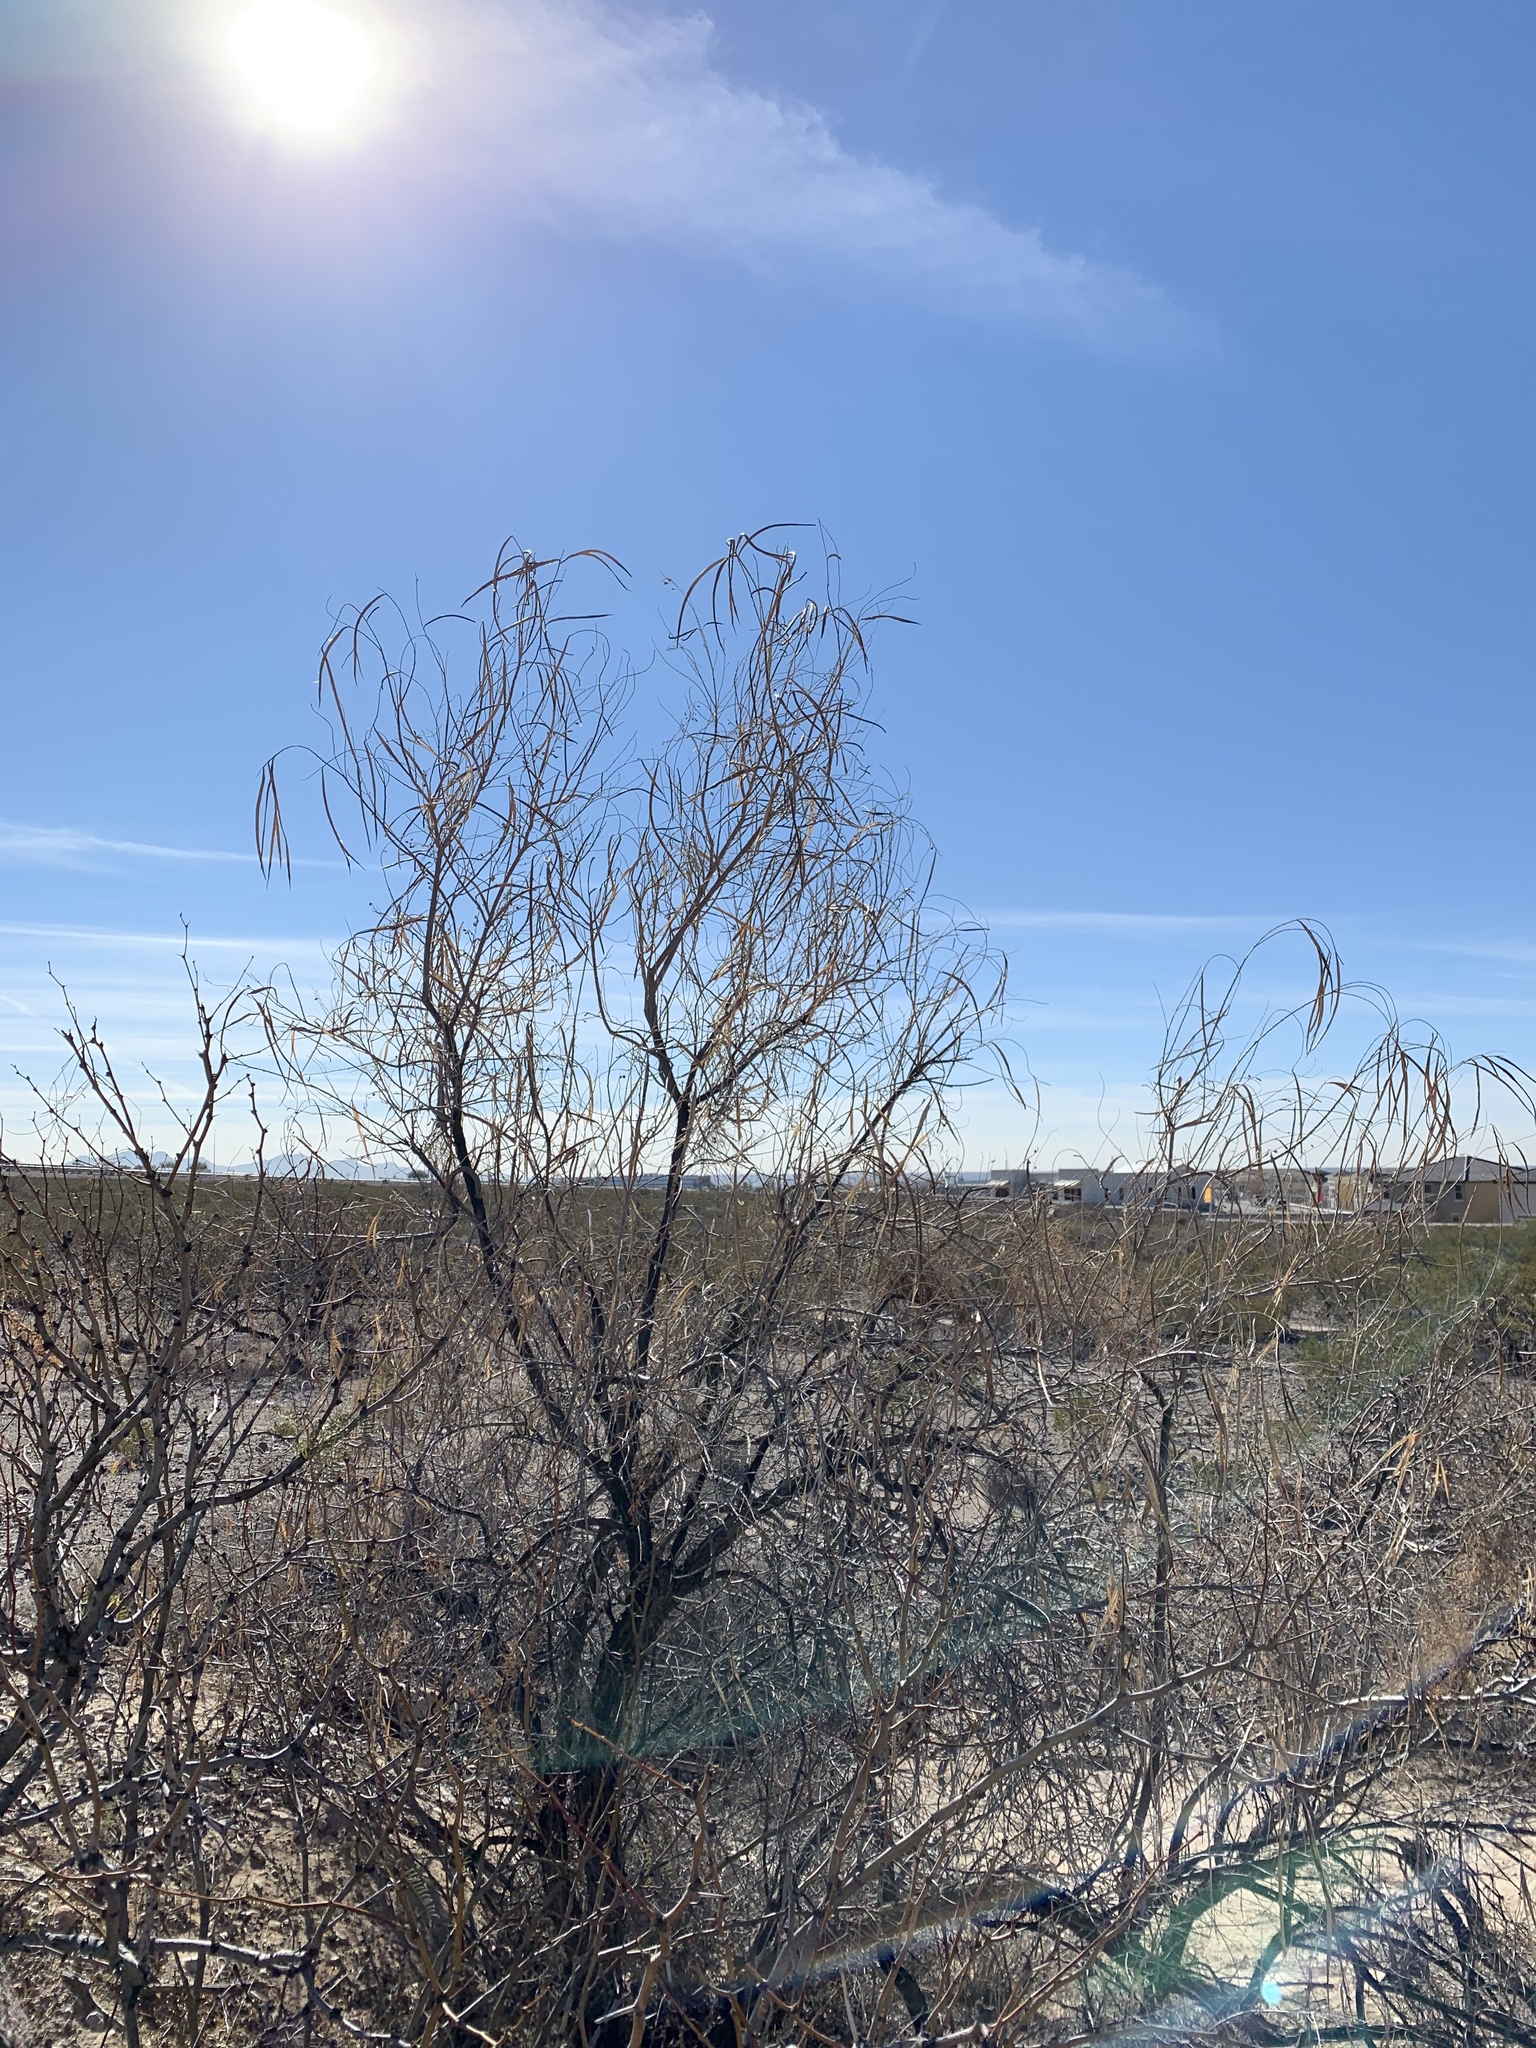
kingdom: Plantae
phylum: Tracheophyta
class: Magnoliopsida
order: Lamiales
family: Bignoniaceae
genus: Chilopsis
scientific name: Chilopsis linearis
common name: Desert-willow
